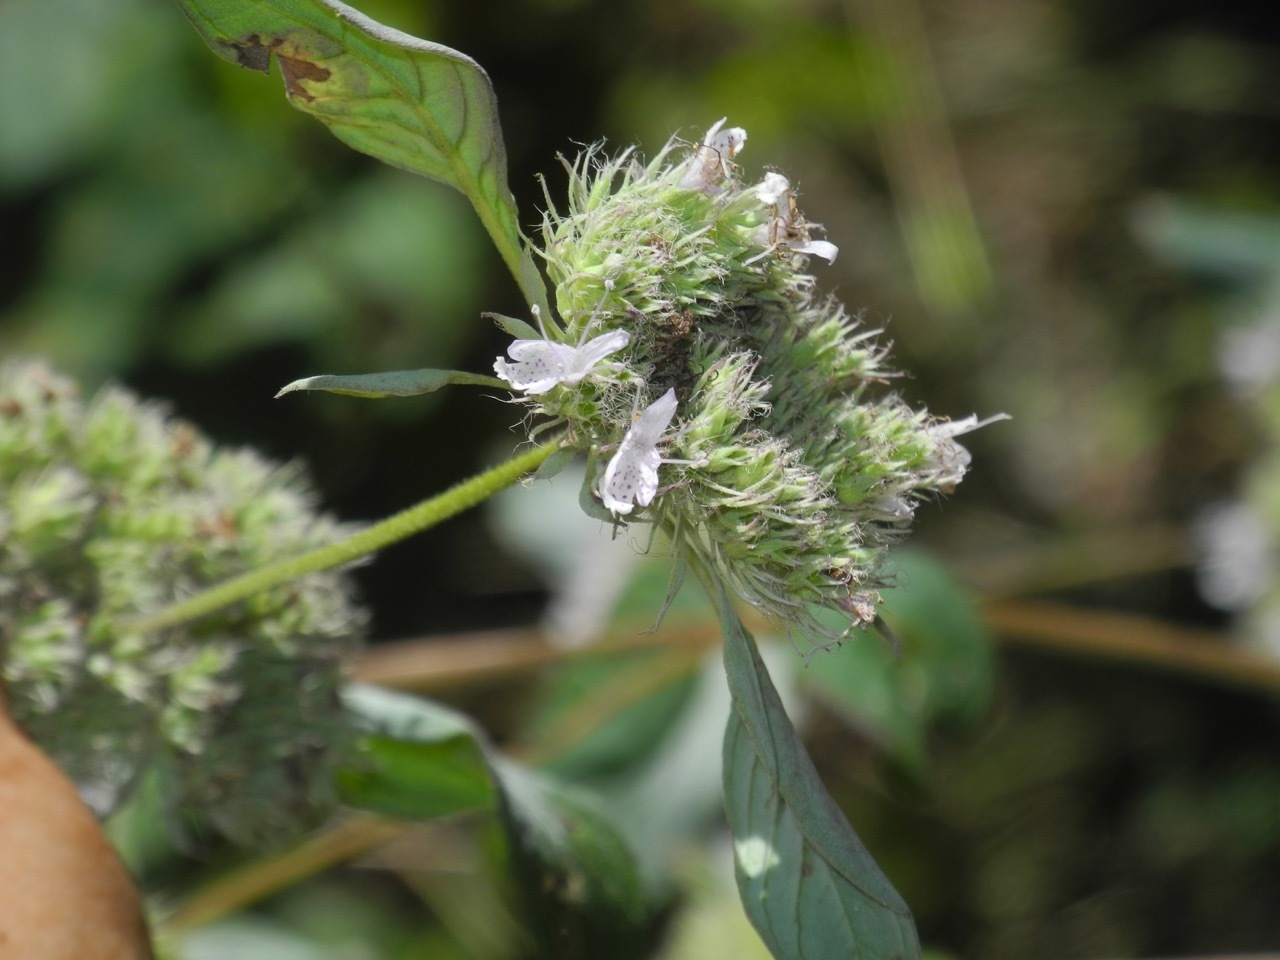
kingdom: Plantae
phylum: Tracheophyta
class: Magnoliopsida
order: Lamiales
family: Lamiaceae
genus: Pycnanthemum
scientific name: Pycnanthemum incanum
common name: Hoary mountain-mint
